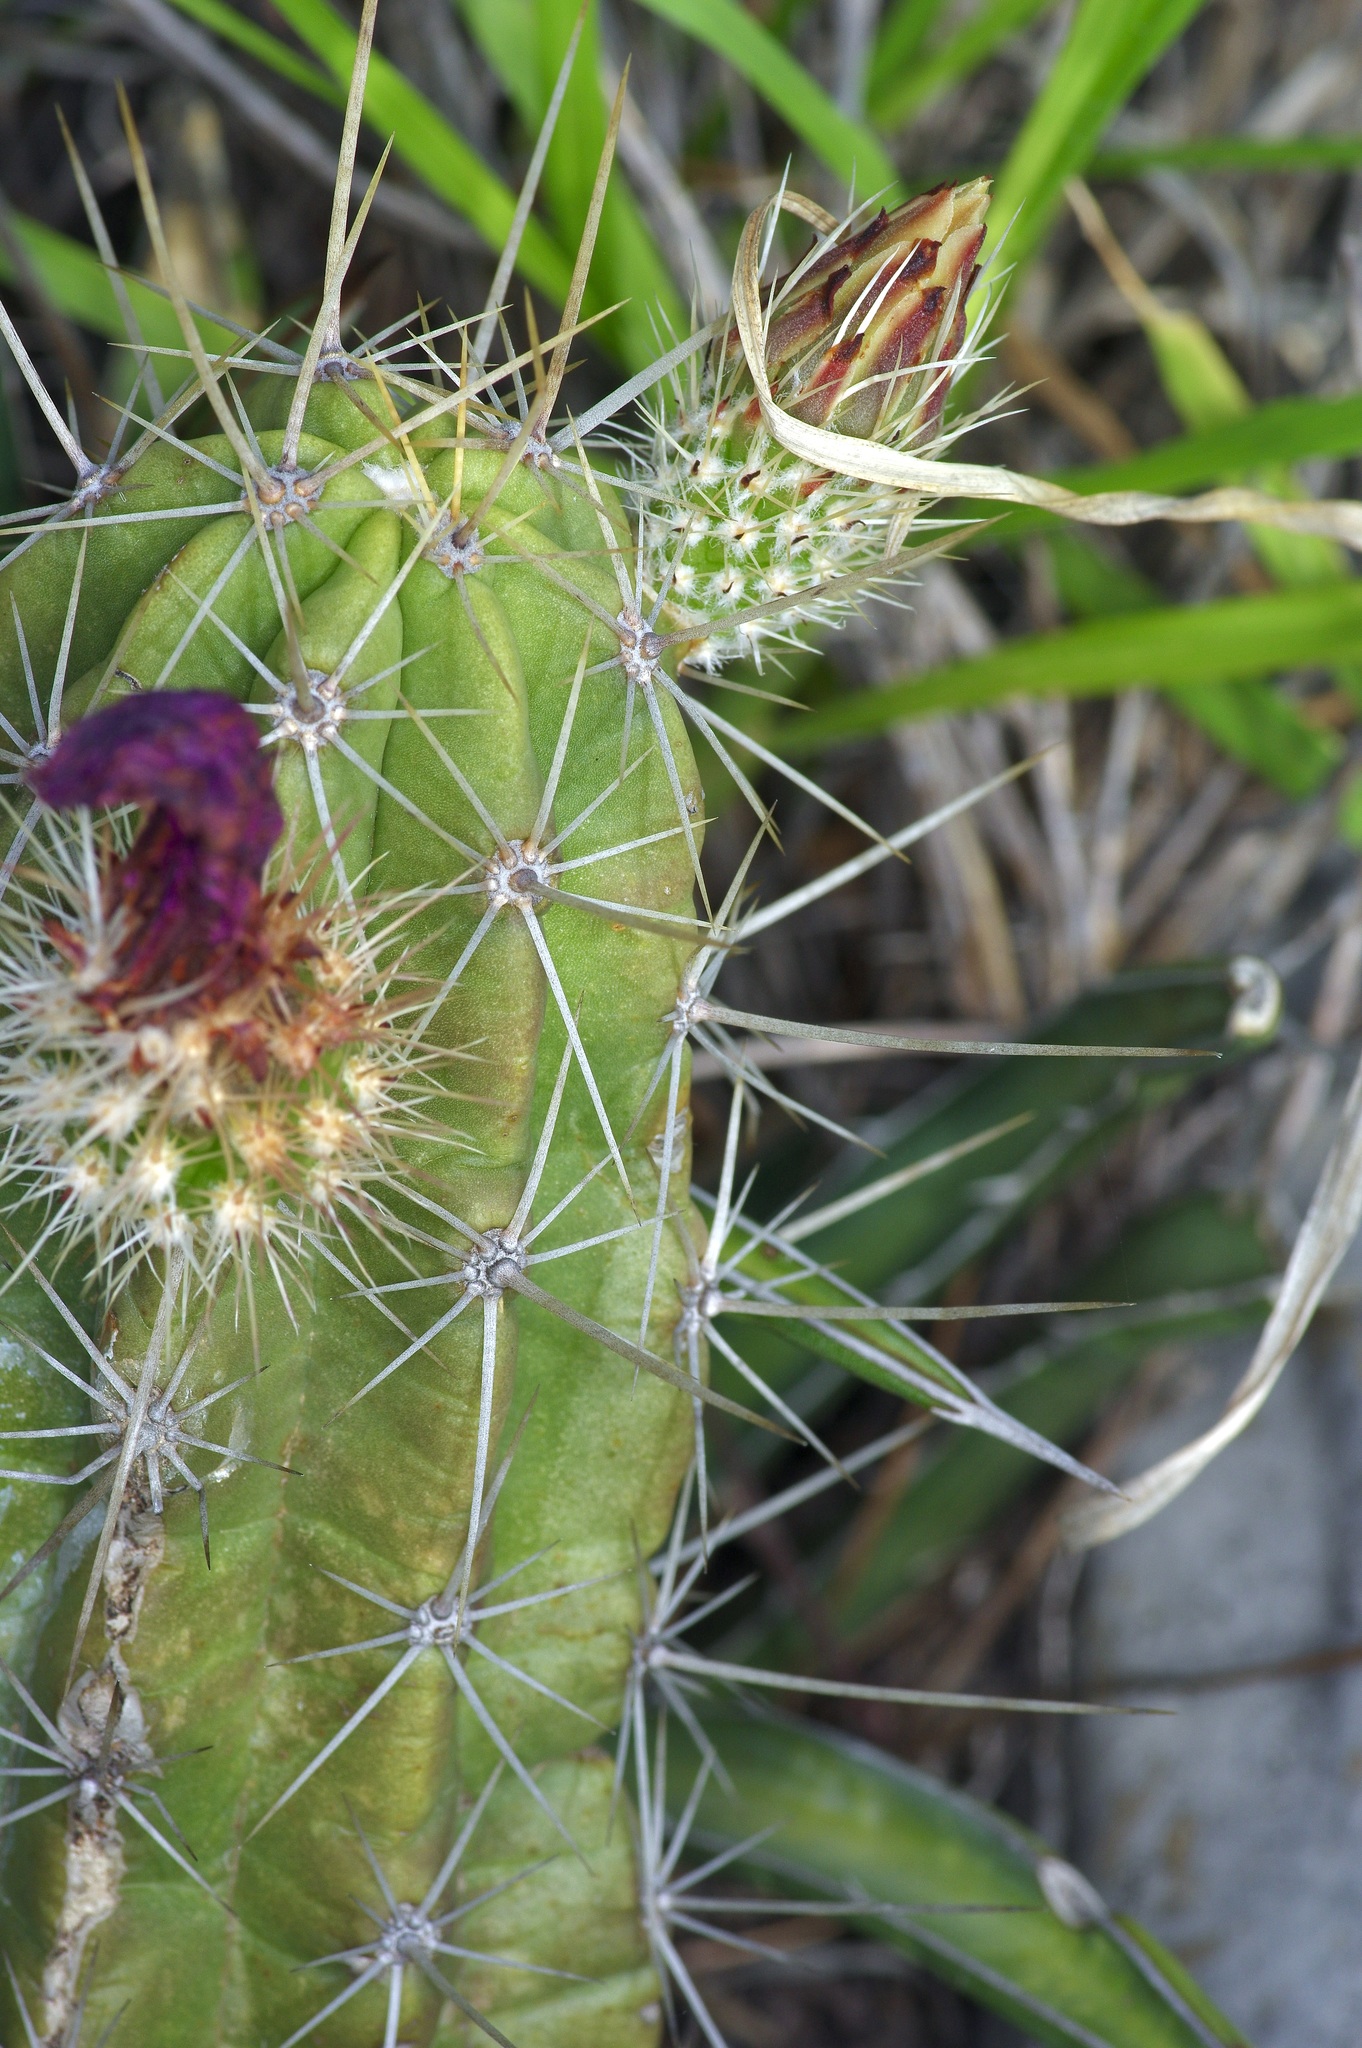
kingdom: Plantae
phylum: Tracheophyta
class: Magnoliopsida
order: Caryophyllales
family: Cactaceae
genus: Echinocereus
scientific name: Echinocereus enneacanthus
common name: Pitaya
